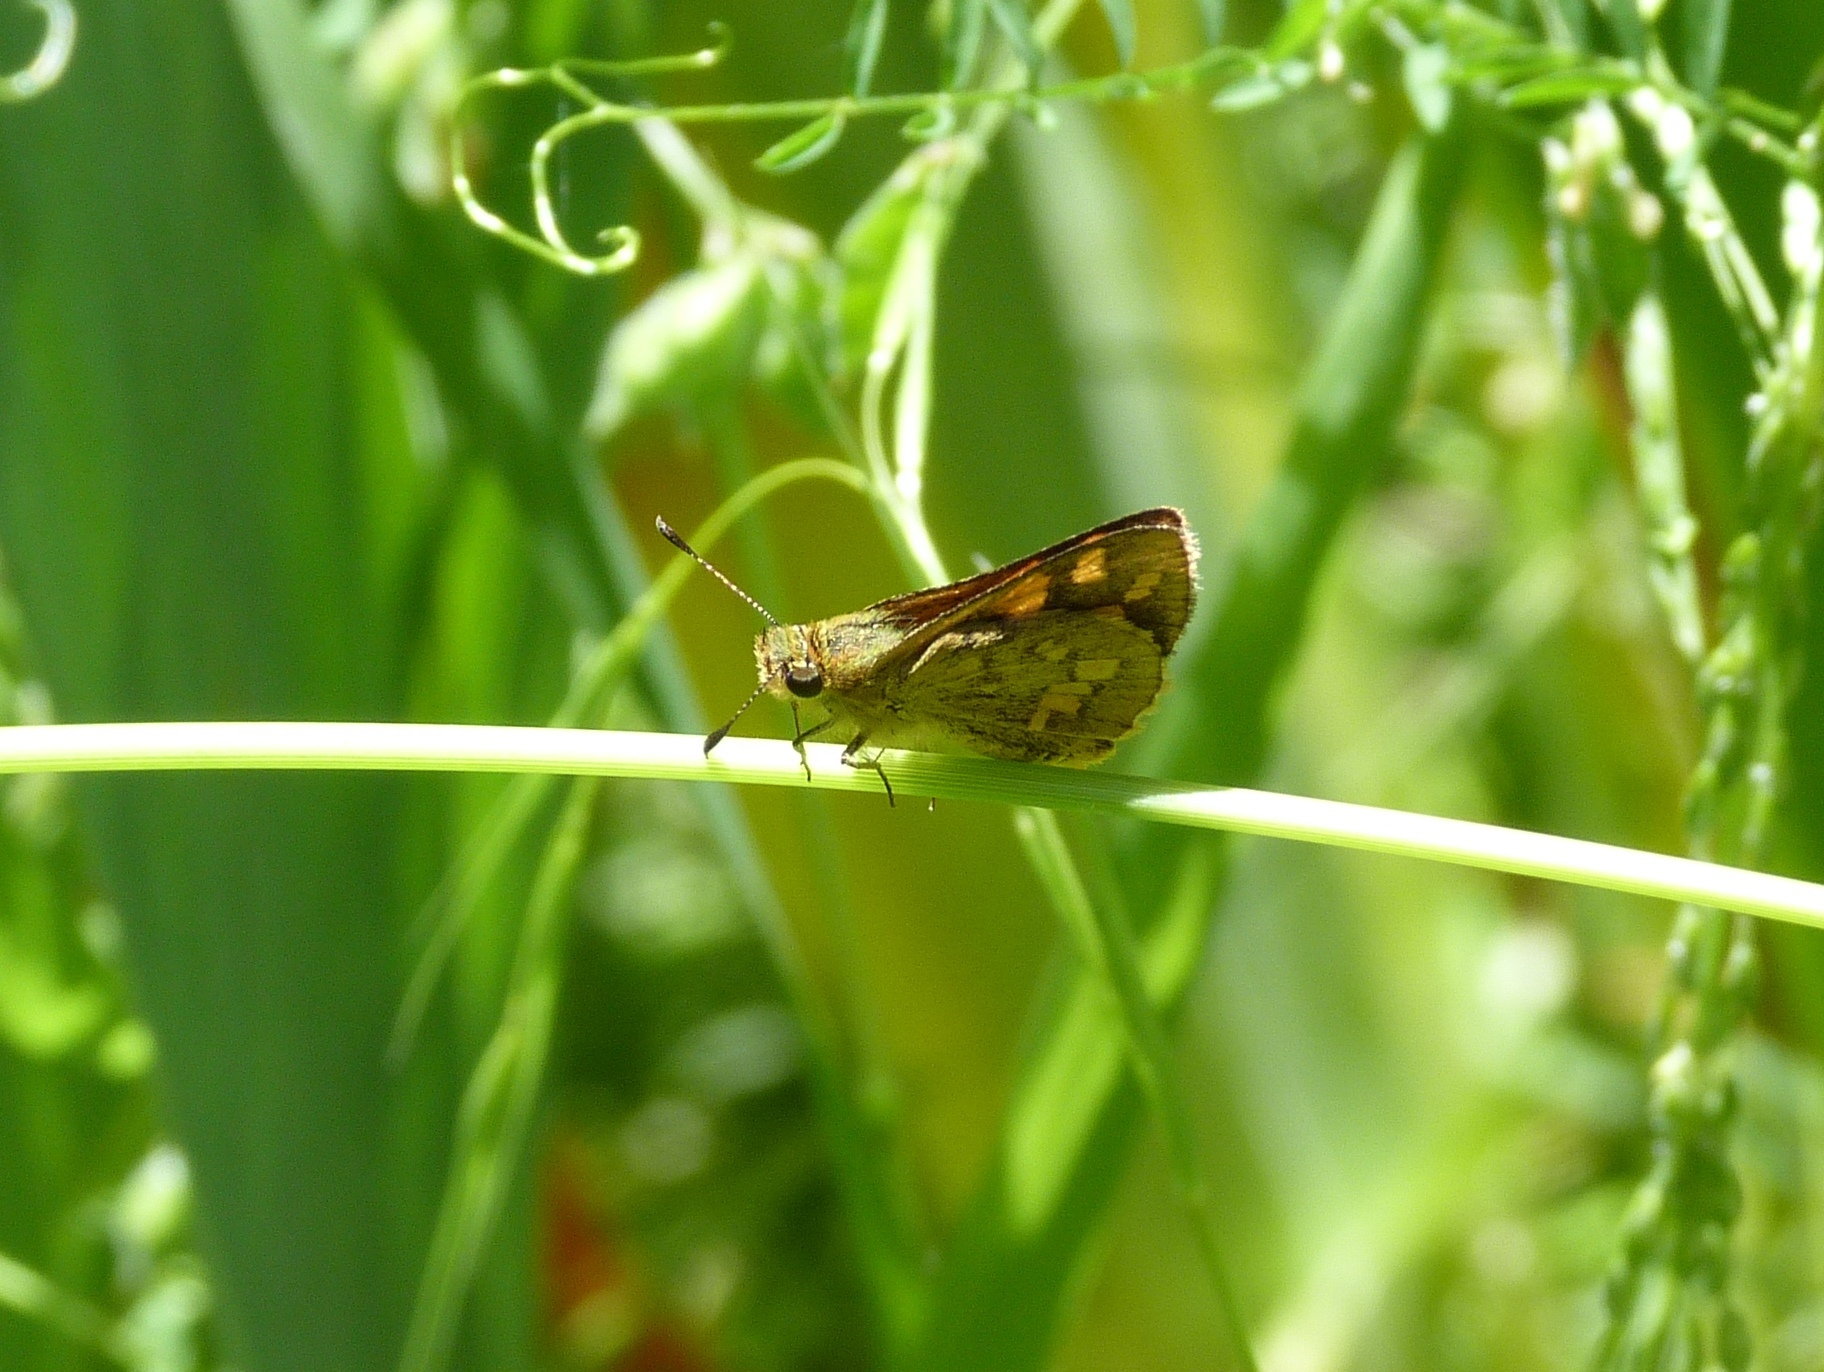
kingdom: Animalia
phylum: Arthropoda
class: Insecta
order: Lepidoptera
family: Hesperiidae
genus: Ocybadistes
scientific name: Ocybadistes walkeri
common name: Yellow-banded dart
